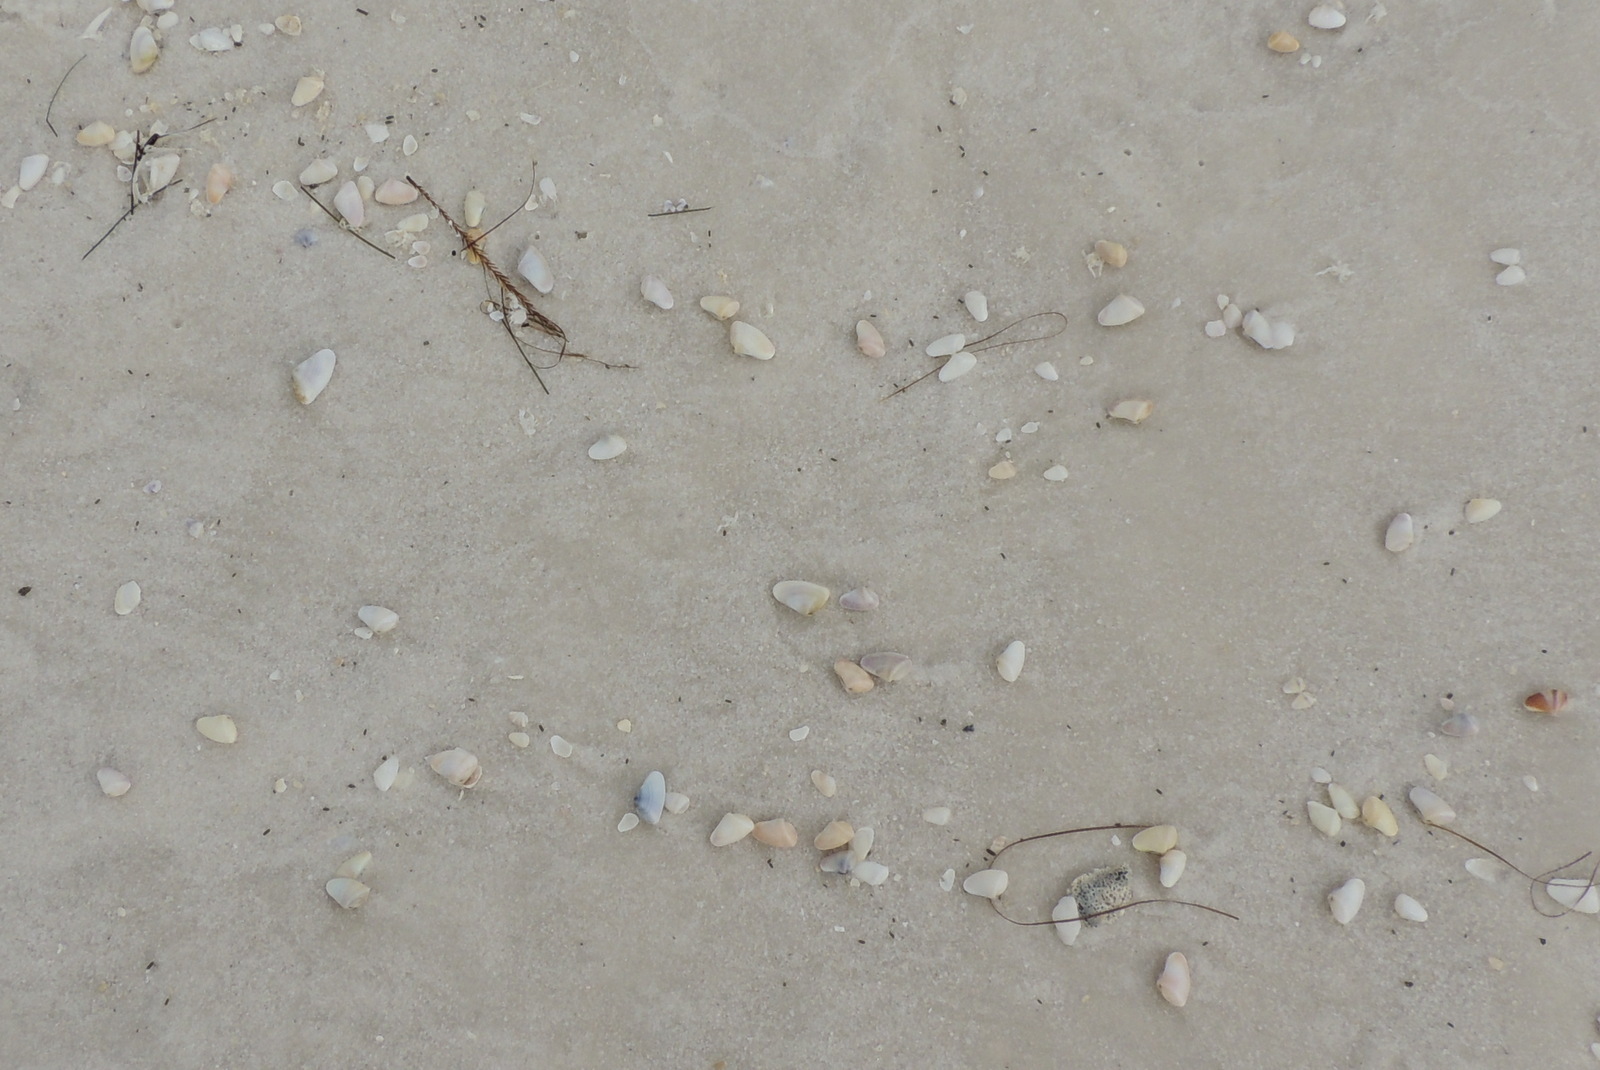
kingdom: Animalia
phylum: Mollusca
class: Bivalvia
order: Cardiida
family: Donacidae
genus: Donax
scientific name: Donax variabilis
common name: Butterfly shell
